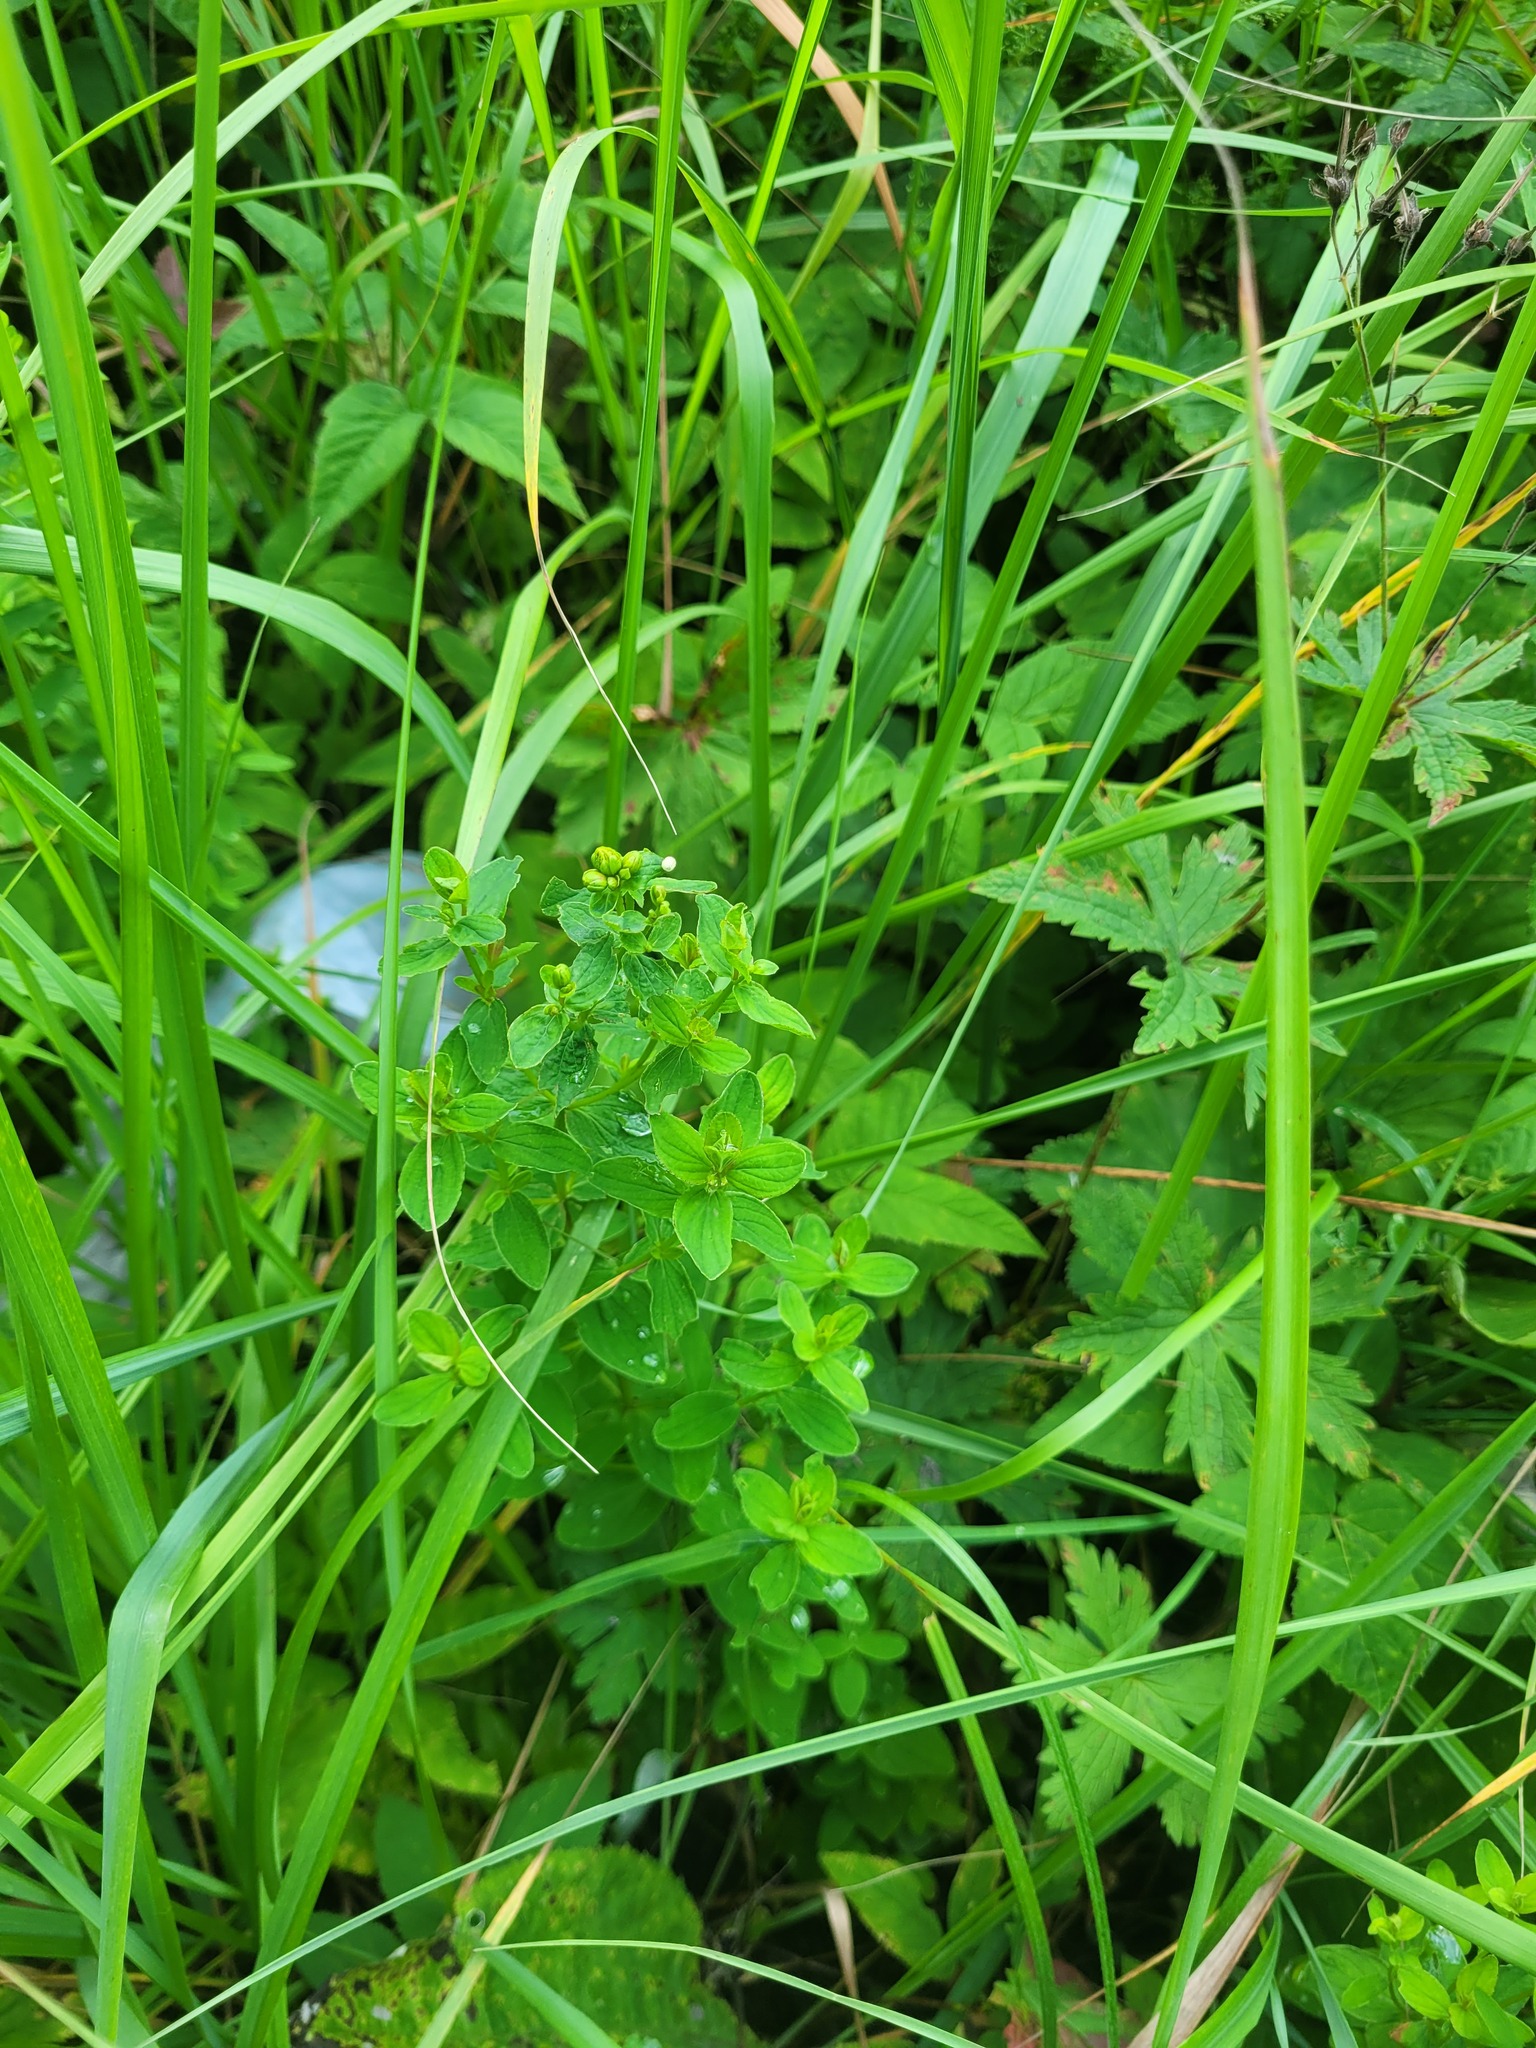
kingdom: Plantae
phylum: Tracheophyta
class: Magnoliopsida
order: Malpighiales
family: Hypericaceae
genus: Hypericum
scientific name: Hypericum maculatum
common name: Imperforate st. john's-wort
